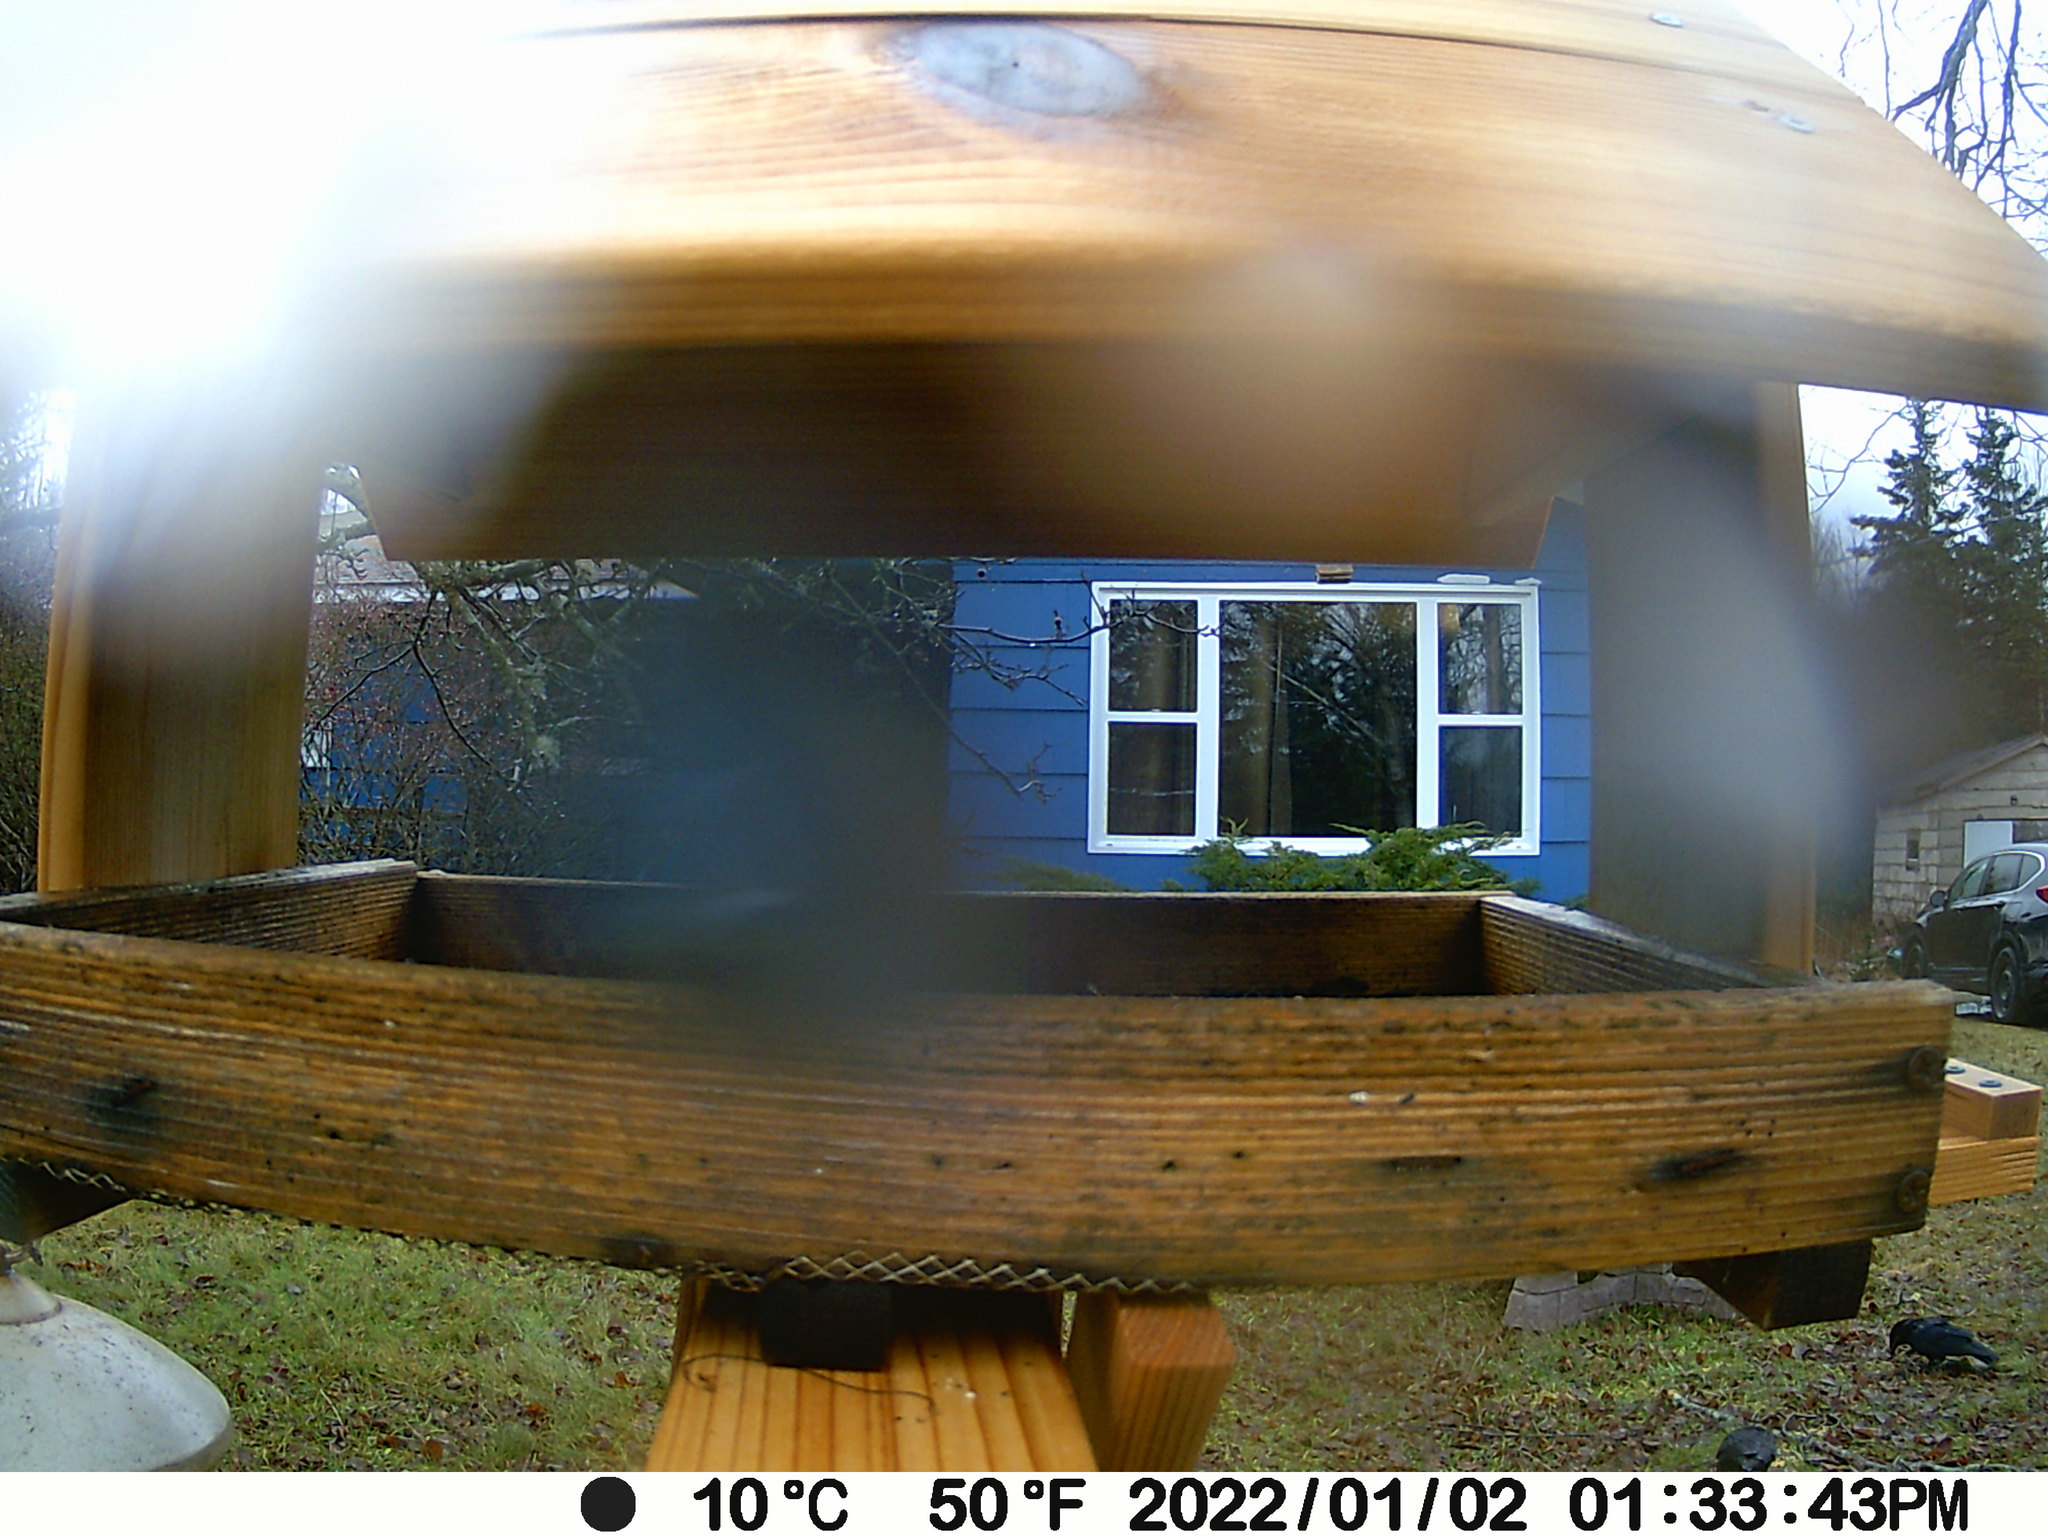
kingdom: Animalia
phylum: Chordata
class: Aves
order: Passeriformes
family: Paridae
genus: Poecile
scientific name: Poecile atricapillus
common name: Black-capped chickadee
